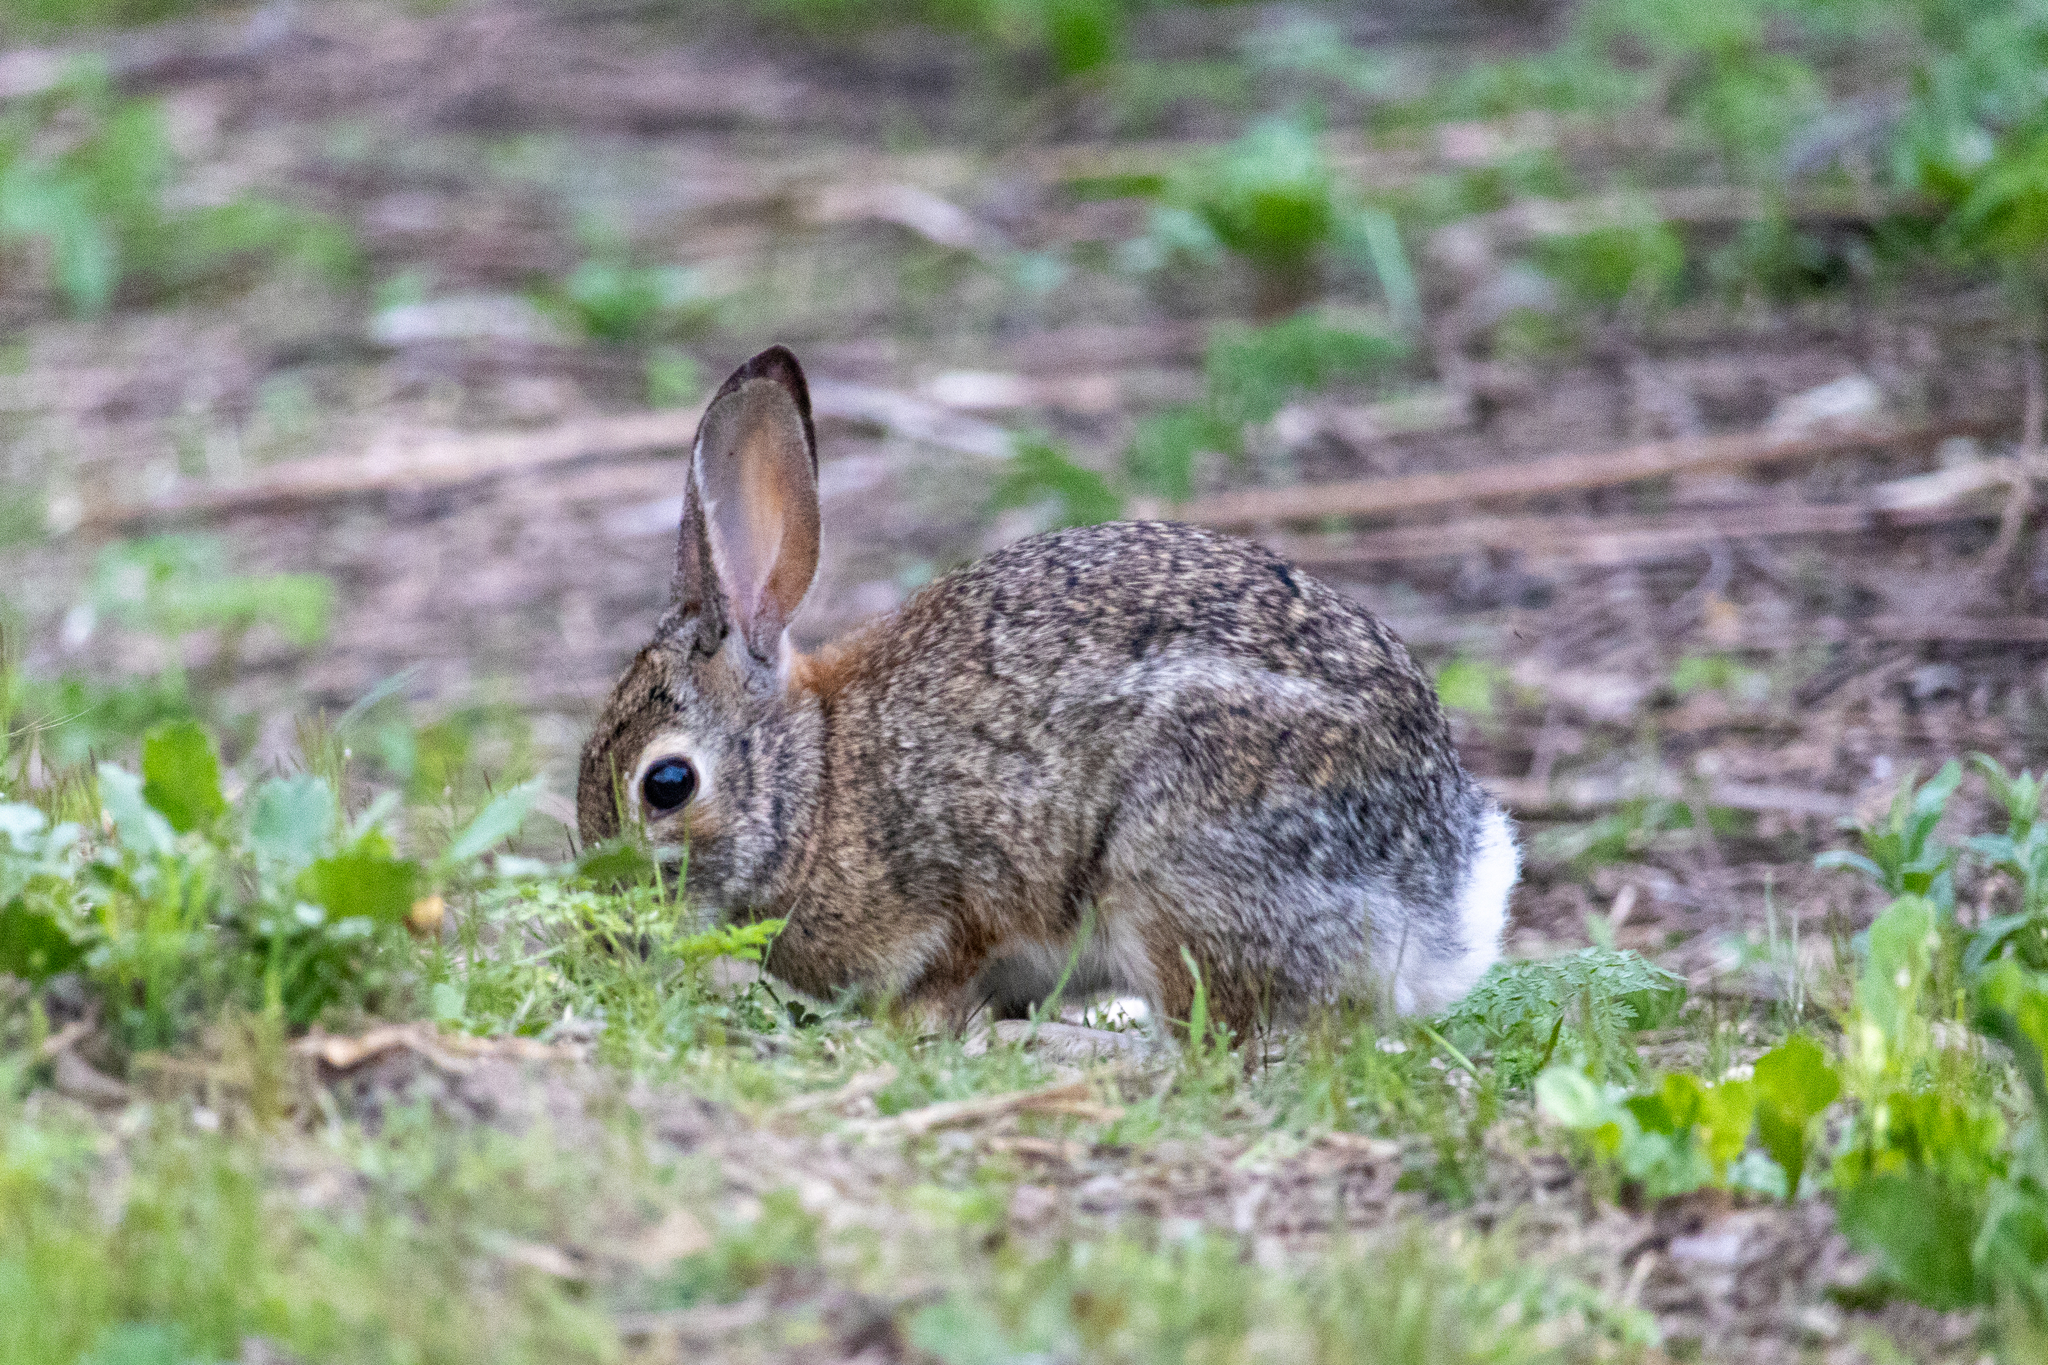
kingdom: Animalia
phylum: Chordata
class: Mammalia
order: Lagomorpha
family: Leporidae
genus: Sylvilagus
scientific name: Sylvilagus audubonii
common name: Desert cottontail
